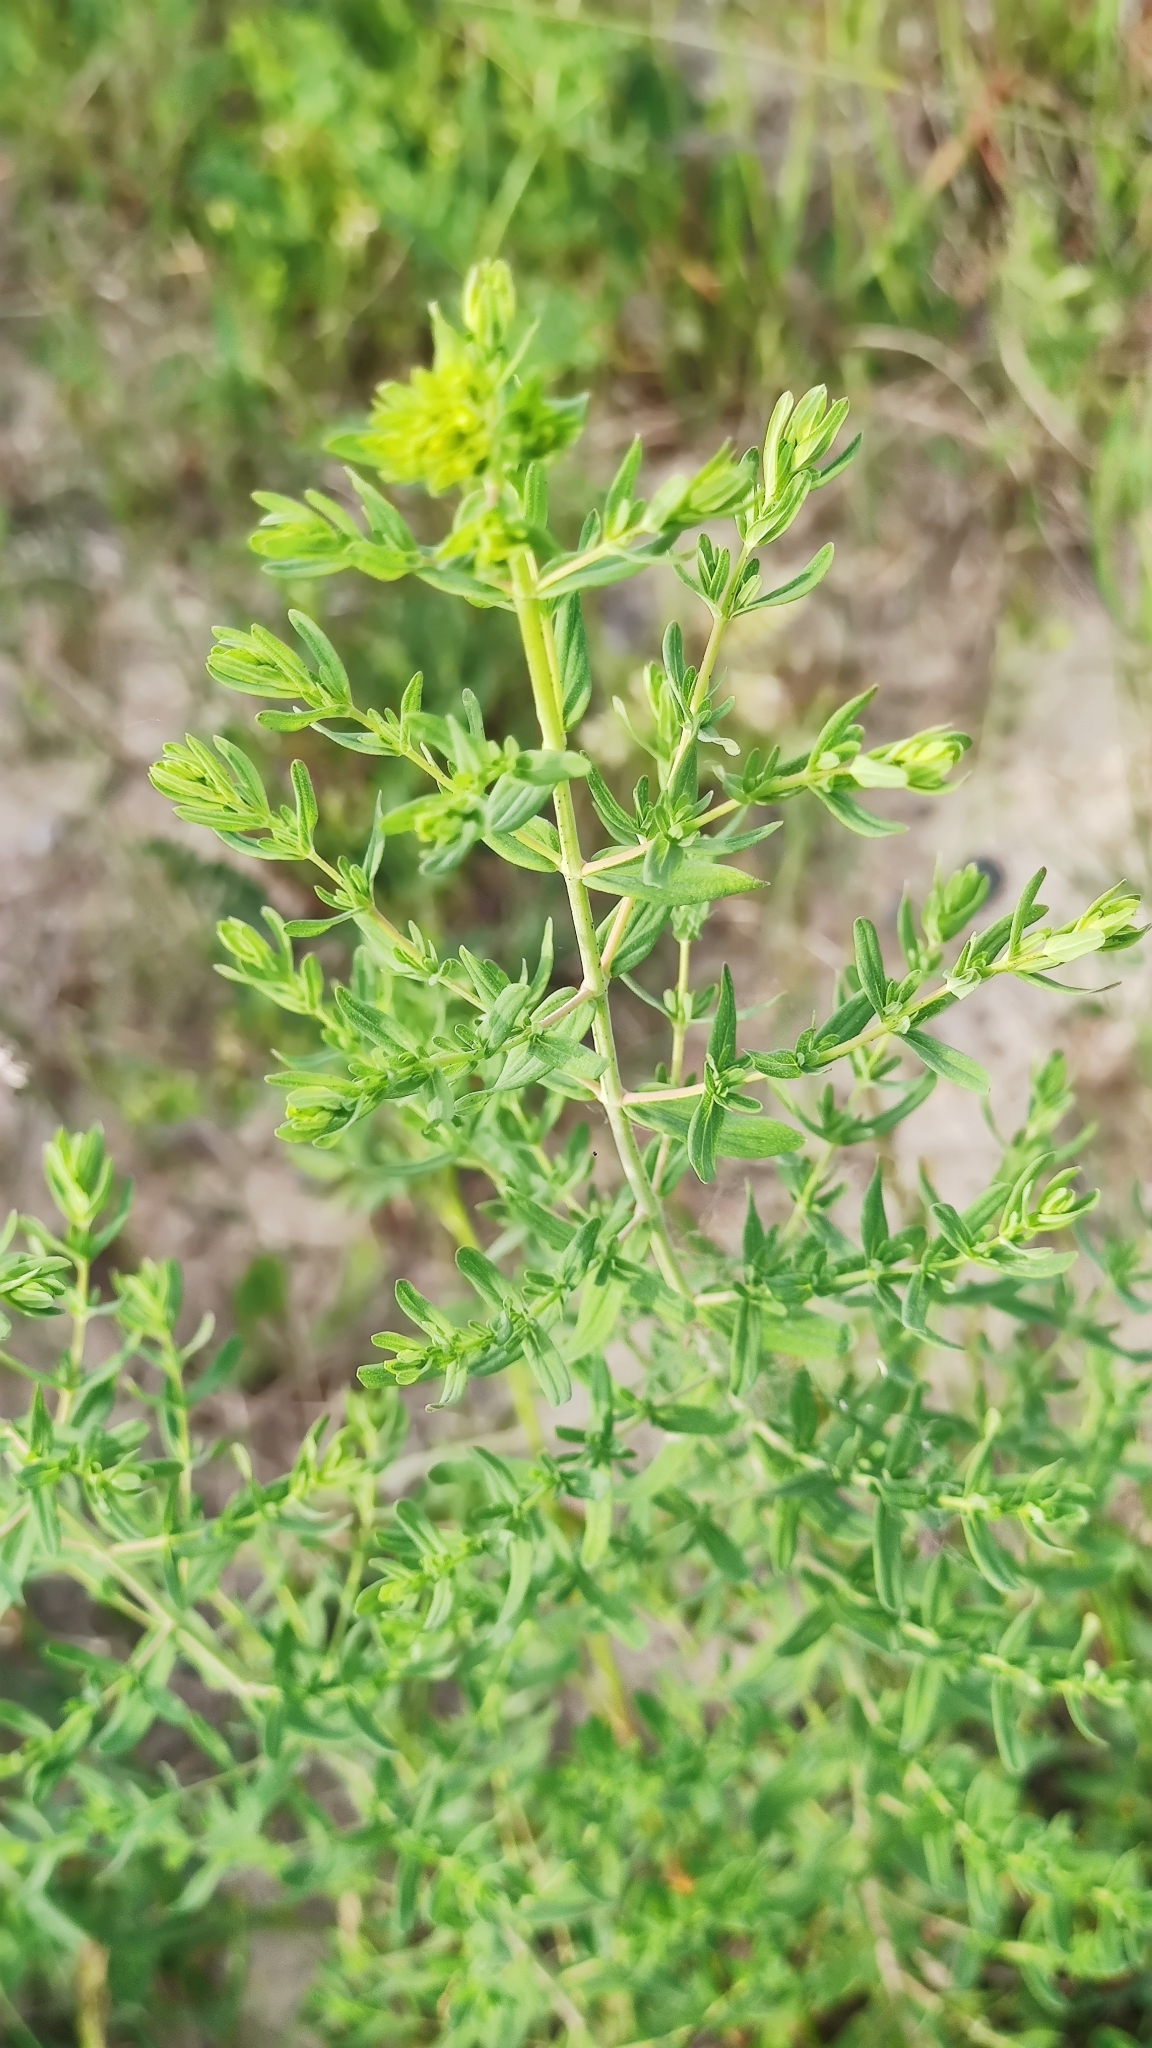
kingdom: Plantae
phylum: Tracheophyta
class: Magnoliopsida
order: Malpighiales
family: Hypericaceae
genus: Hypericum
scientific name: Hypericum perforatum
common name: Common st. johnswort
